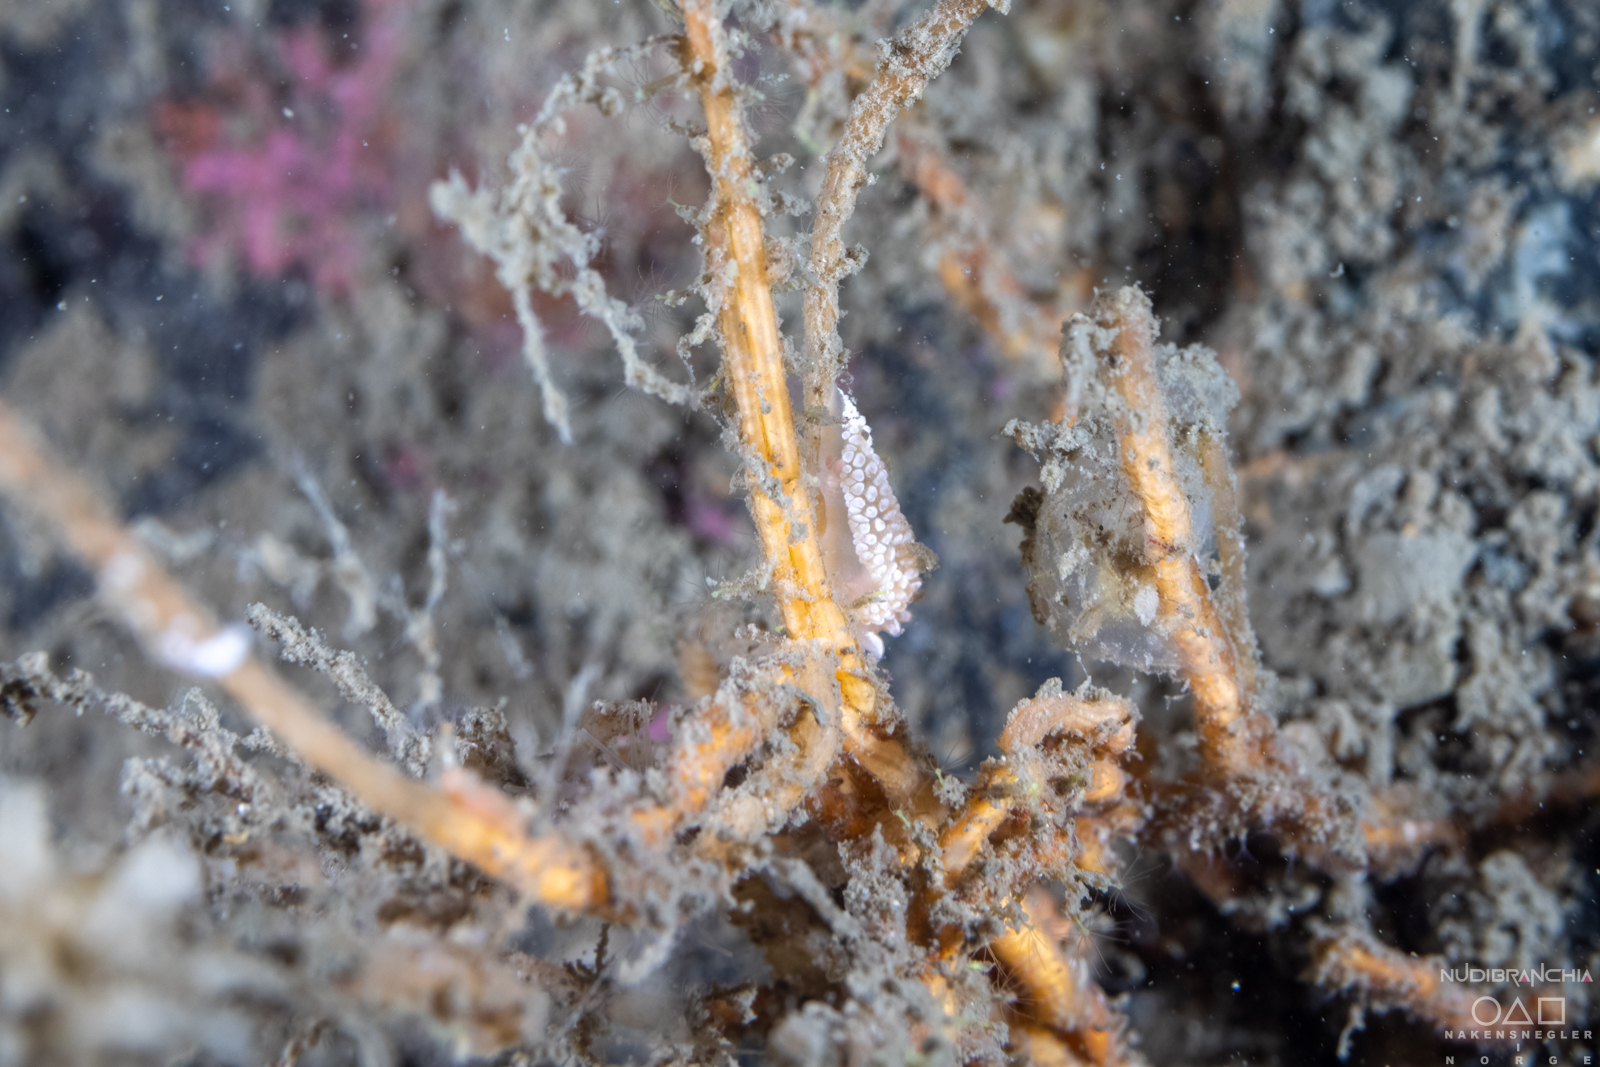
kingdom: Animalia
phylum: Mollusca
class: Gastropoda
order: Nudibranchia
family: Coryphellidae
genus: Coryphella
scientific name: Coryphella verrucosa
